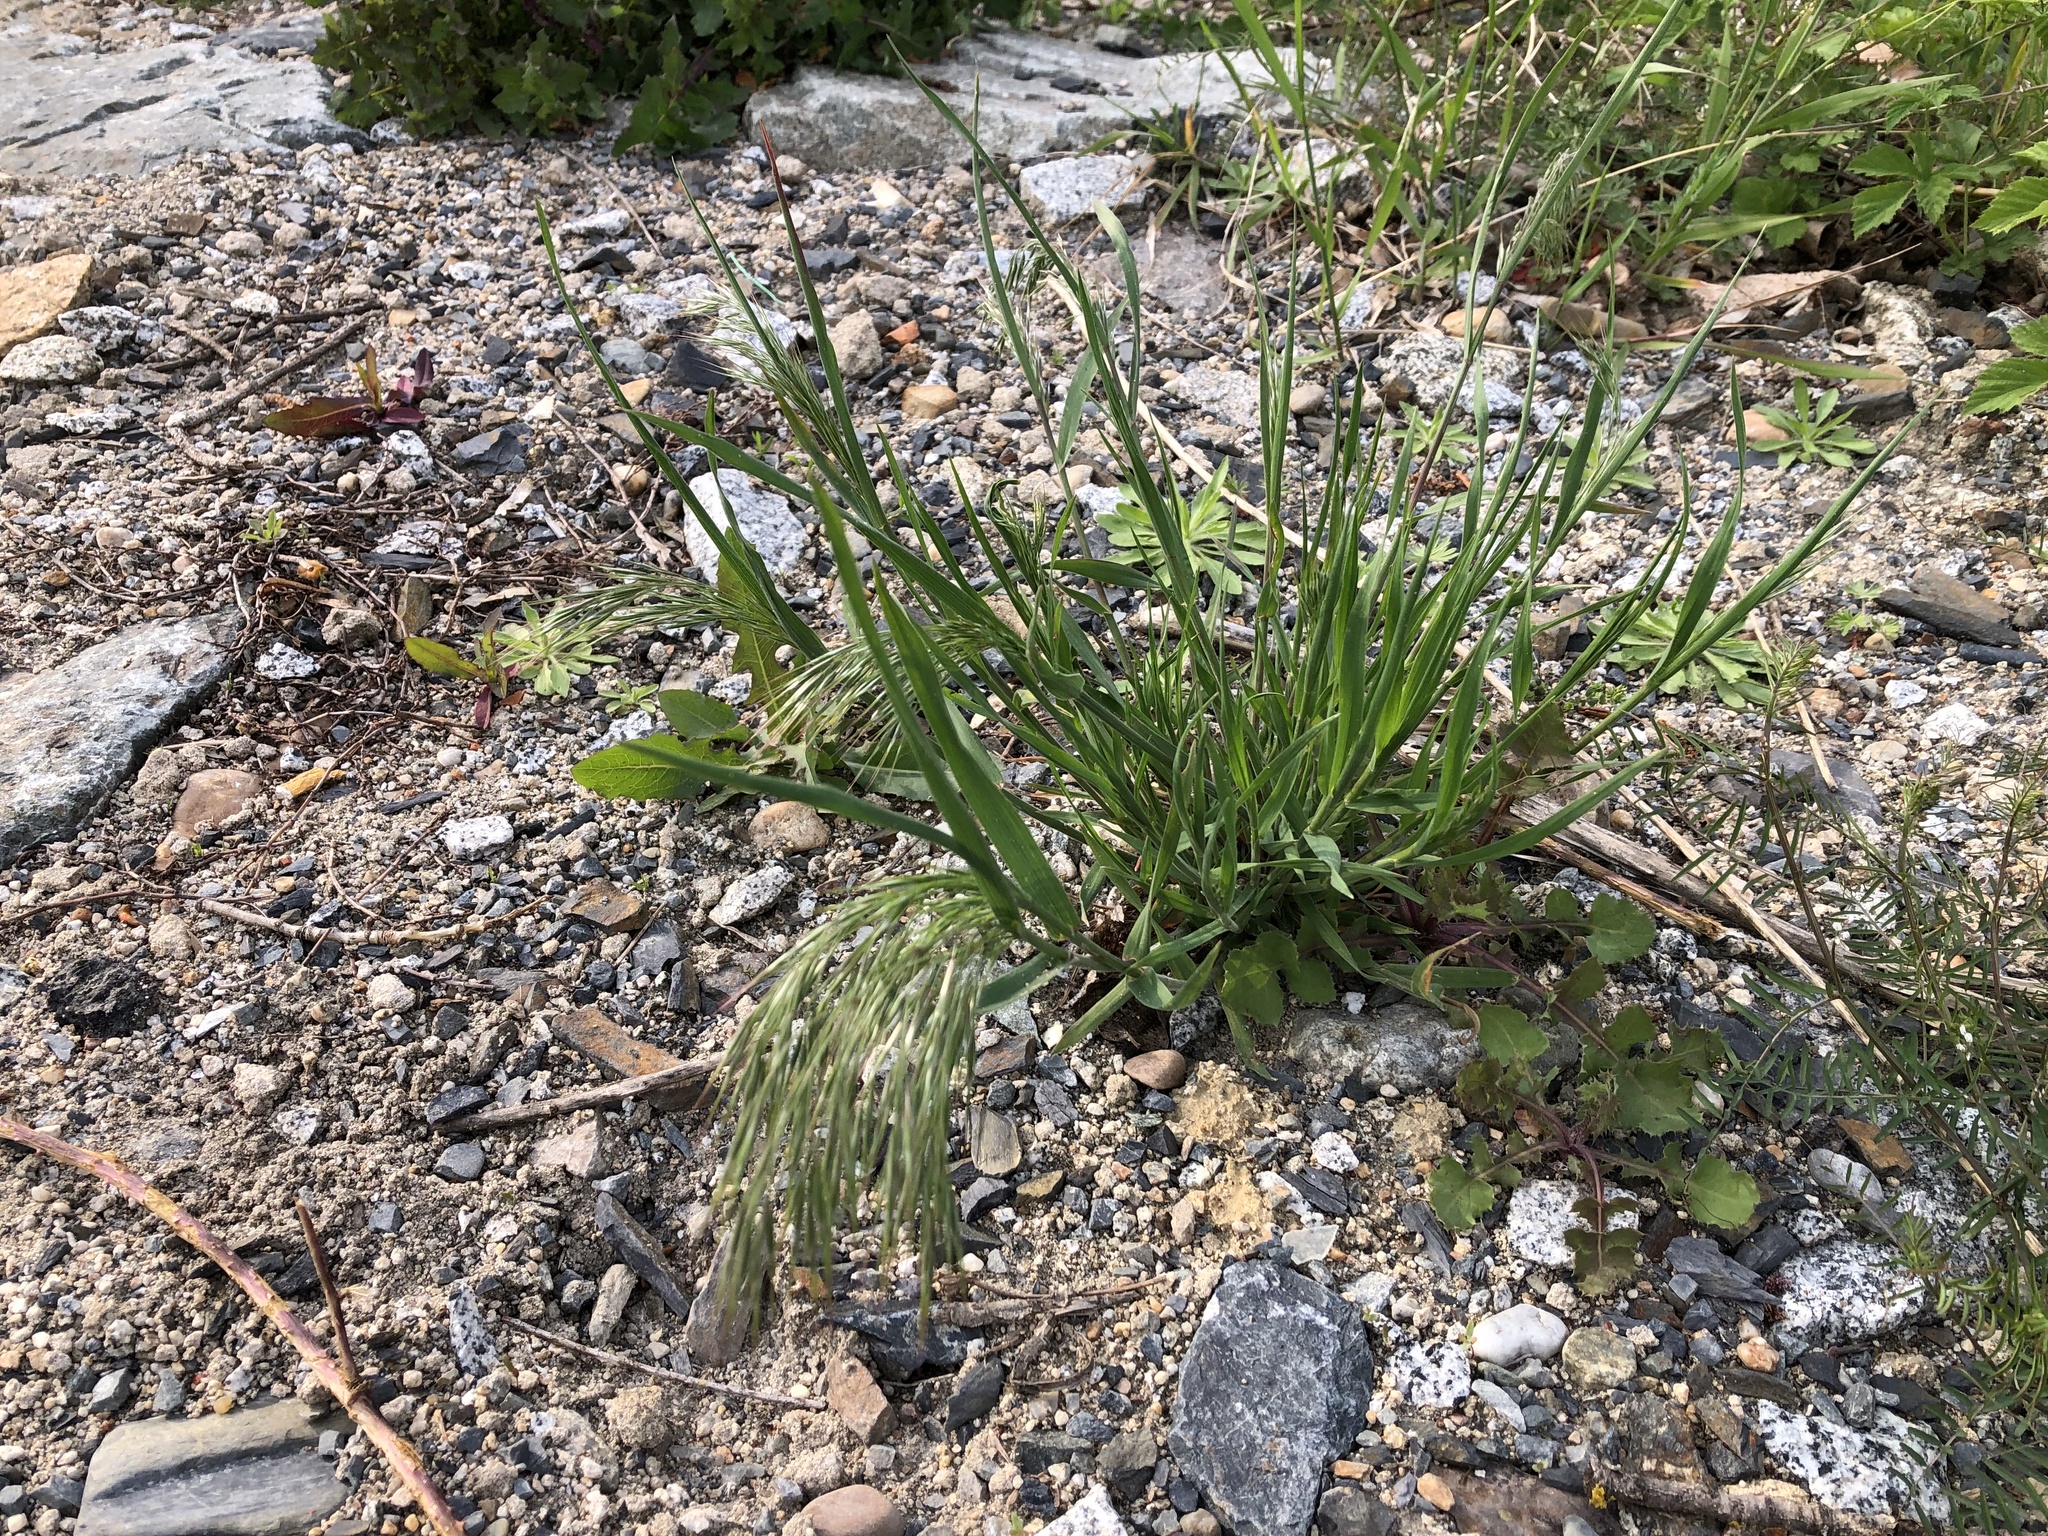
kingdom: Plantae
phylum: Tracheophyta
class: Liliopsida
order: Poales
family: Poaceae
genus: Bromus
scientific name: Bromus tectorum
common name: Cheatgrass
